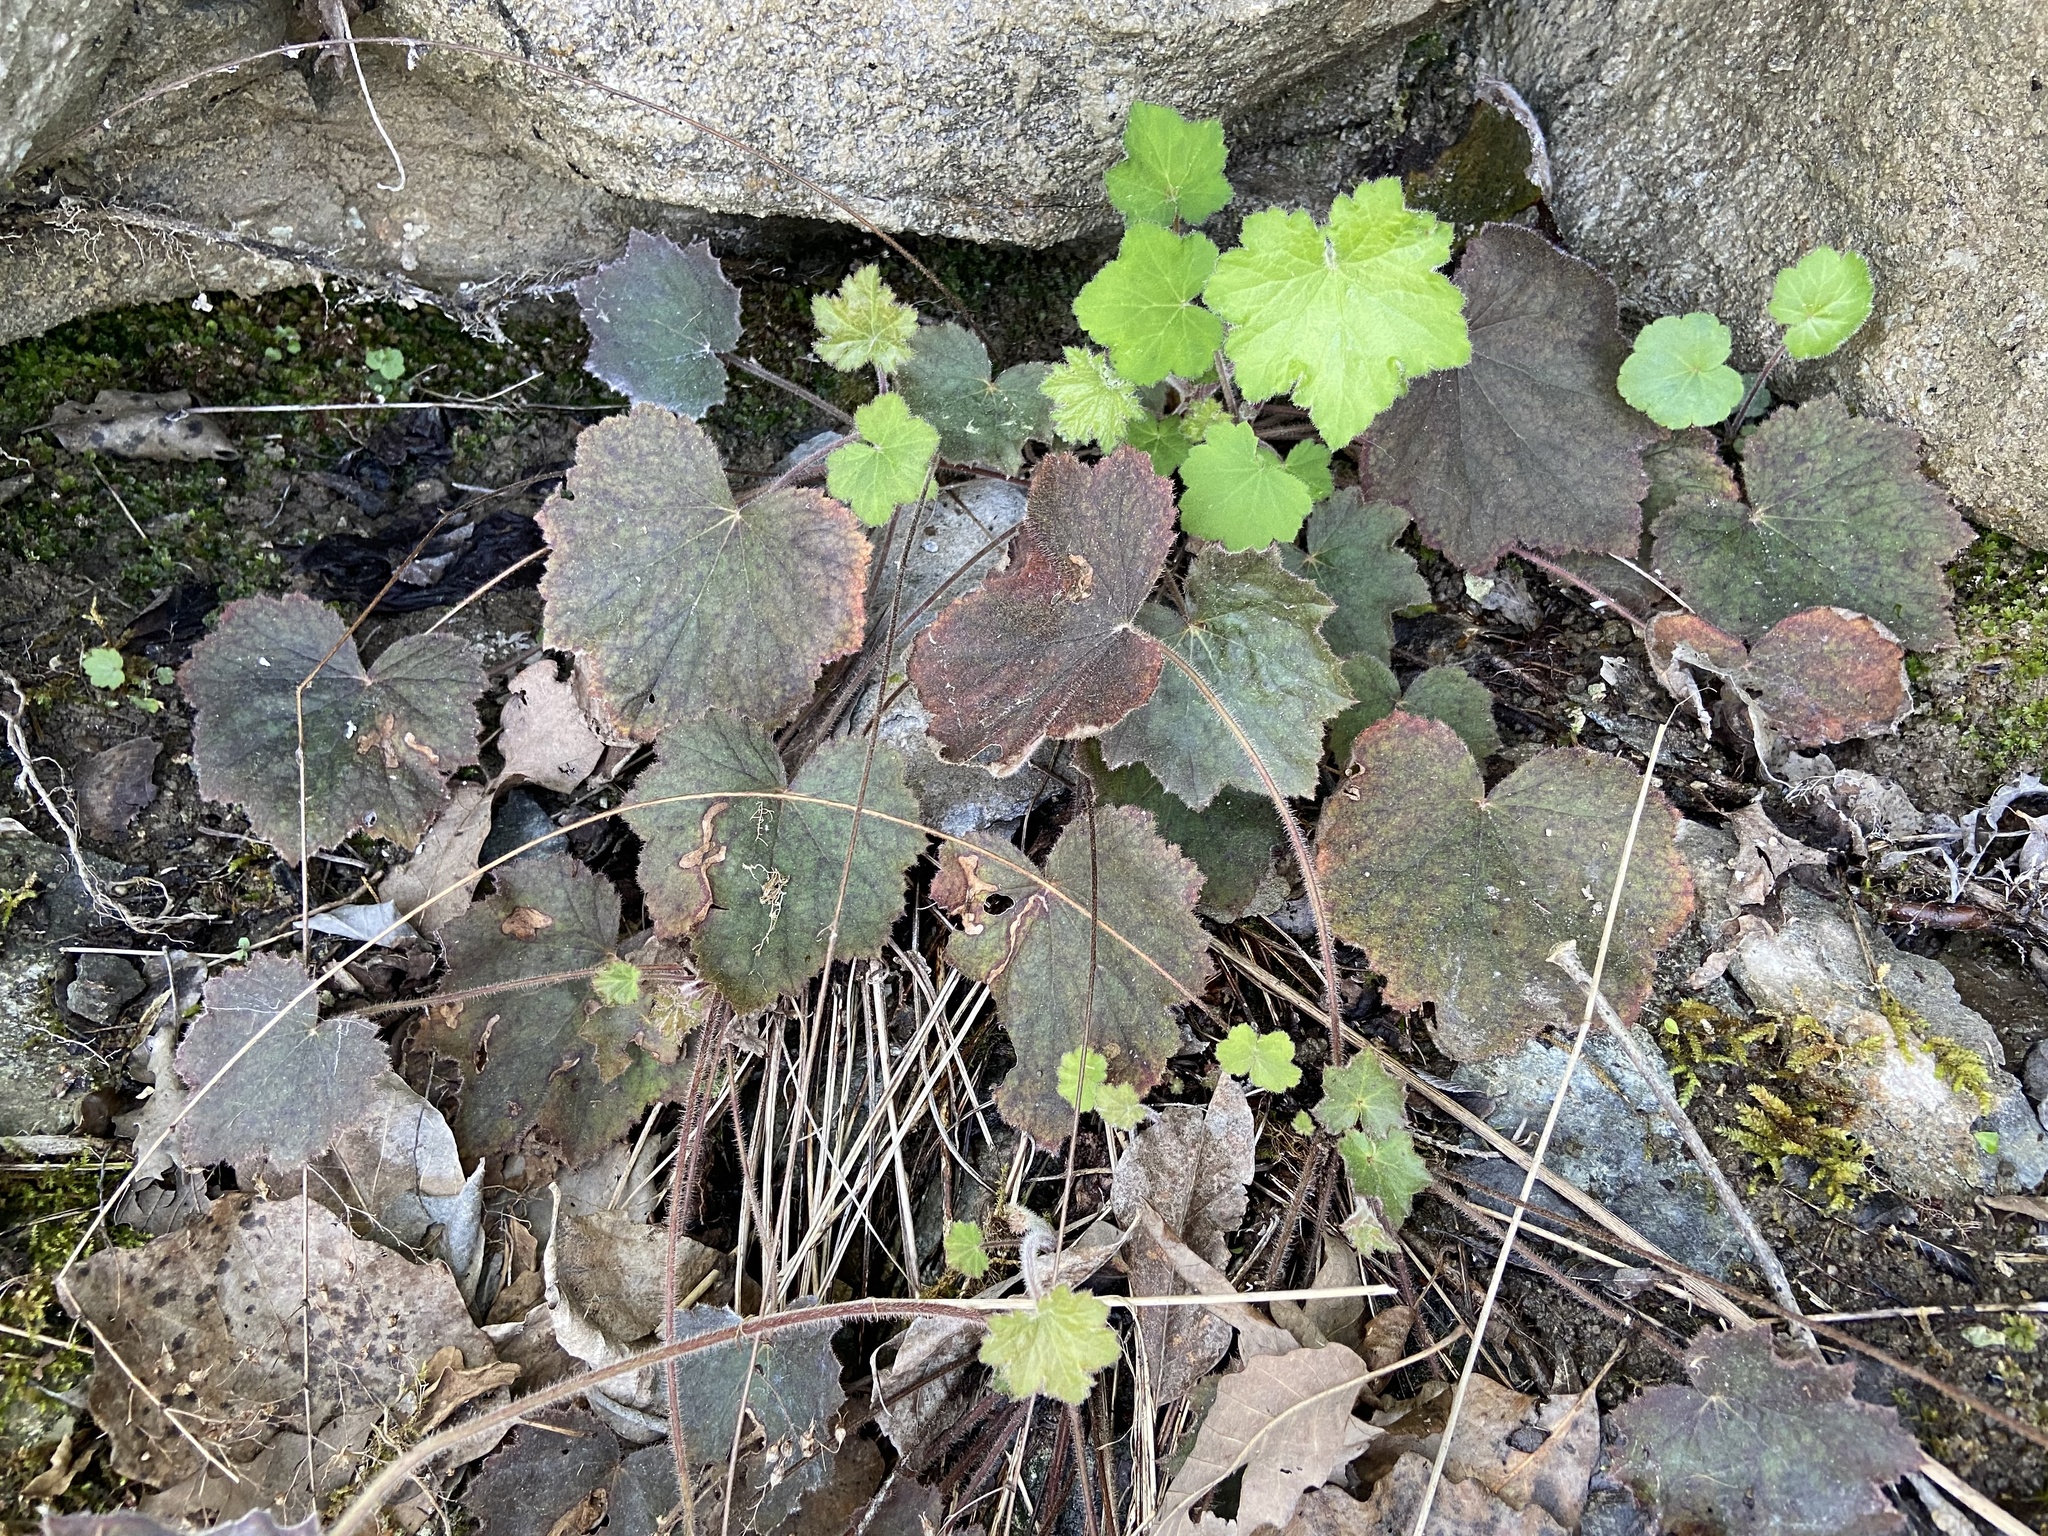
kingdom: Plantae
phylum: Tracheophyta
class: Magnoliopsida
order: Saxifragales
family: Saxifragaceae
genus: Heuchera
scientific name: Heuchera villosa
